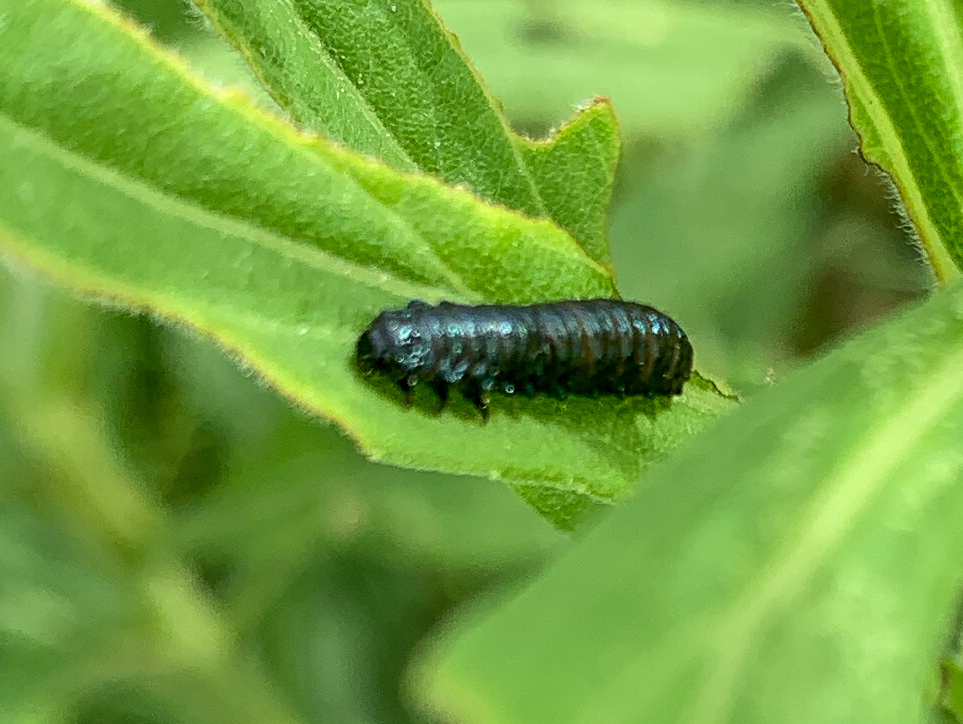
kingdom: Animalia
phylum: Arthropoda
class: Insecta
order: Coleoptera
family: Chrysomelidae
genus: Trirhabda
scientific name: Trirhabda canadensis
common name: Goldenrod leaf beetle
